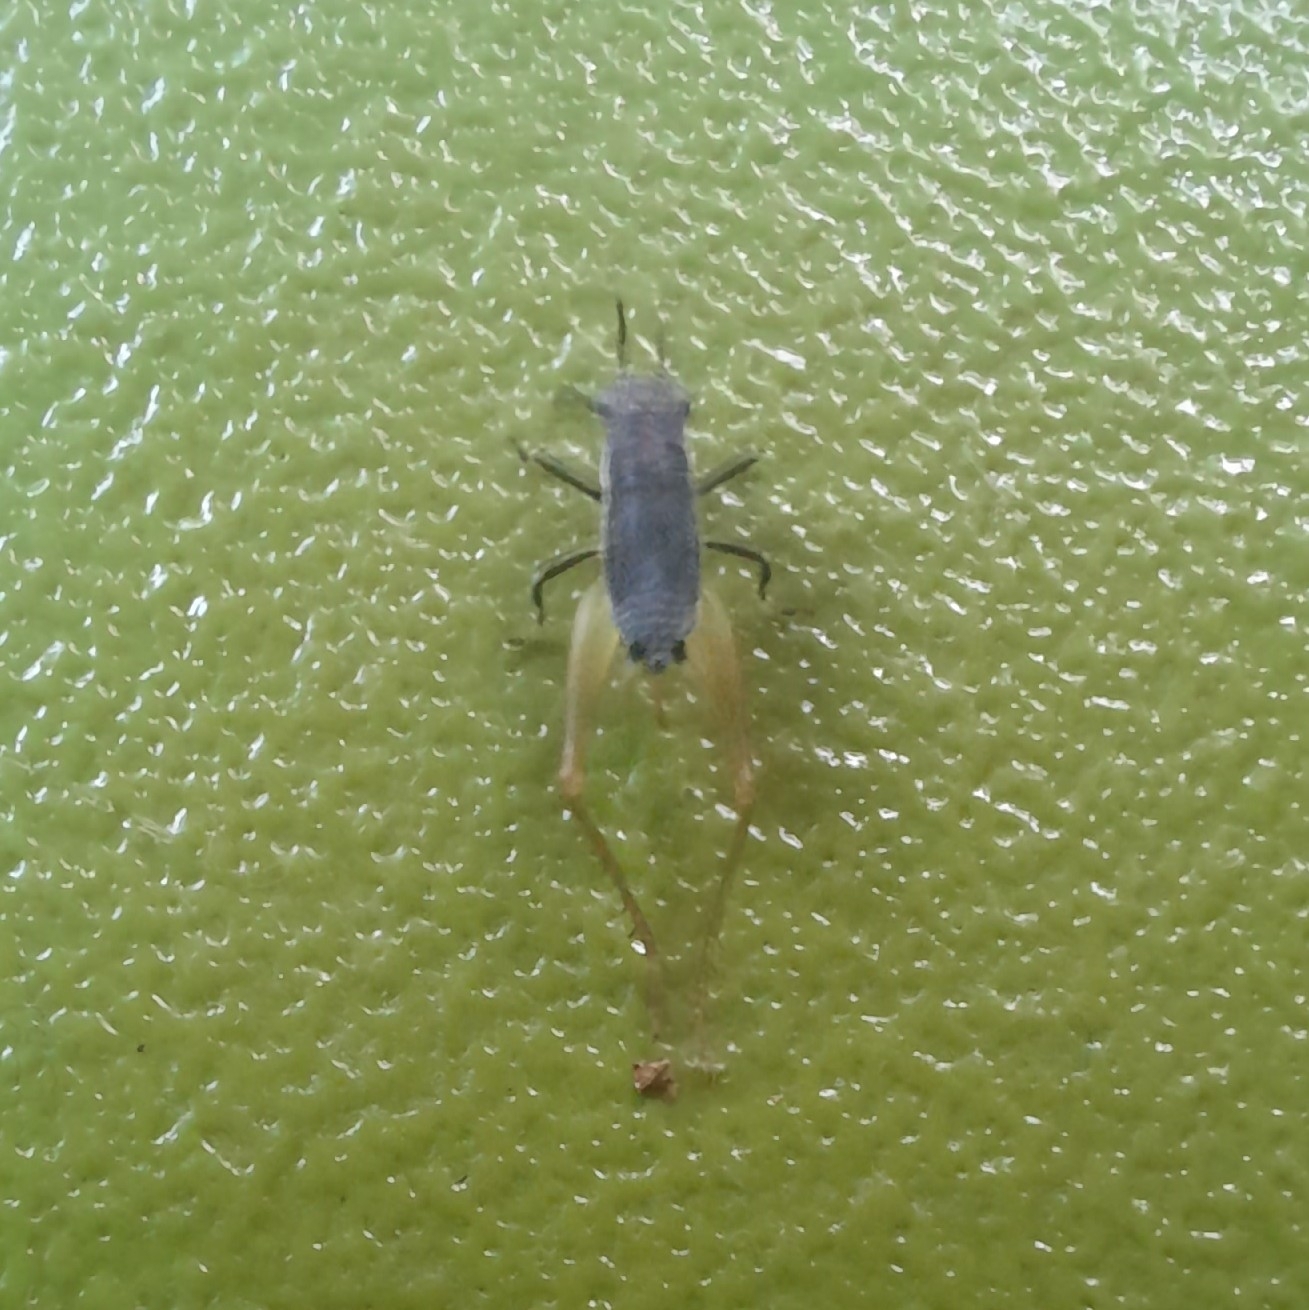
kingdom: Animalia
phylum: Arthropoda
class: Insecta
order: Orthoptera
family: Trigonidiidae
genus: Phyllopalpus
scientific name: Phyllopalpus pulchellus
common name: Handsome trig
